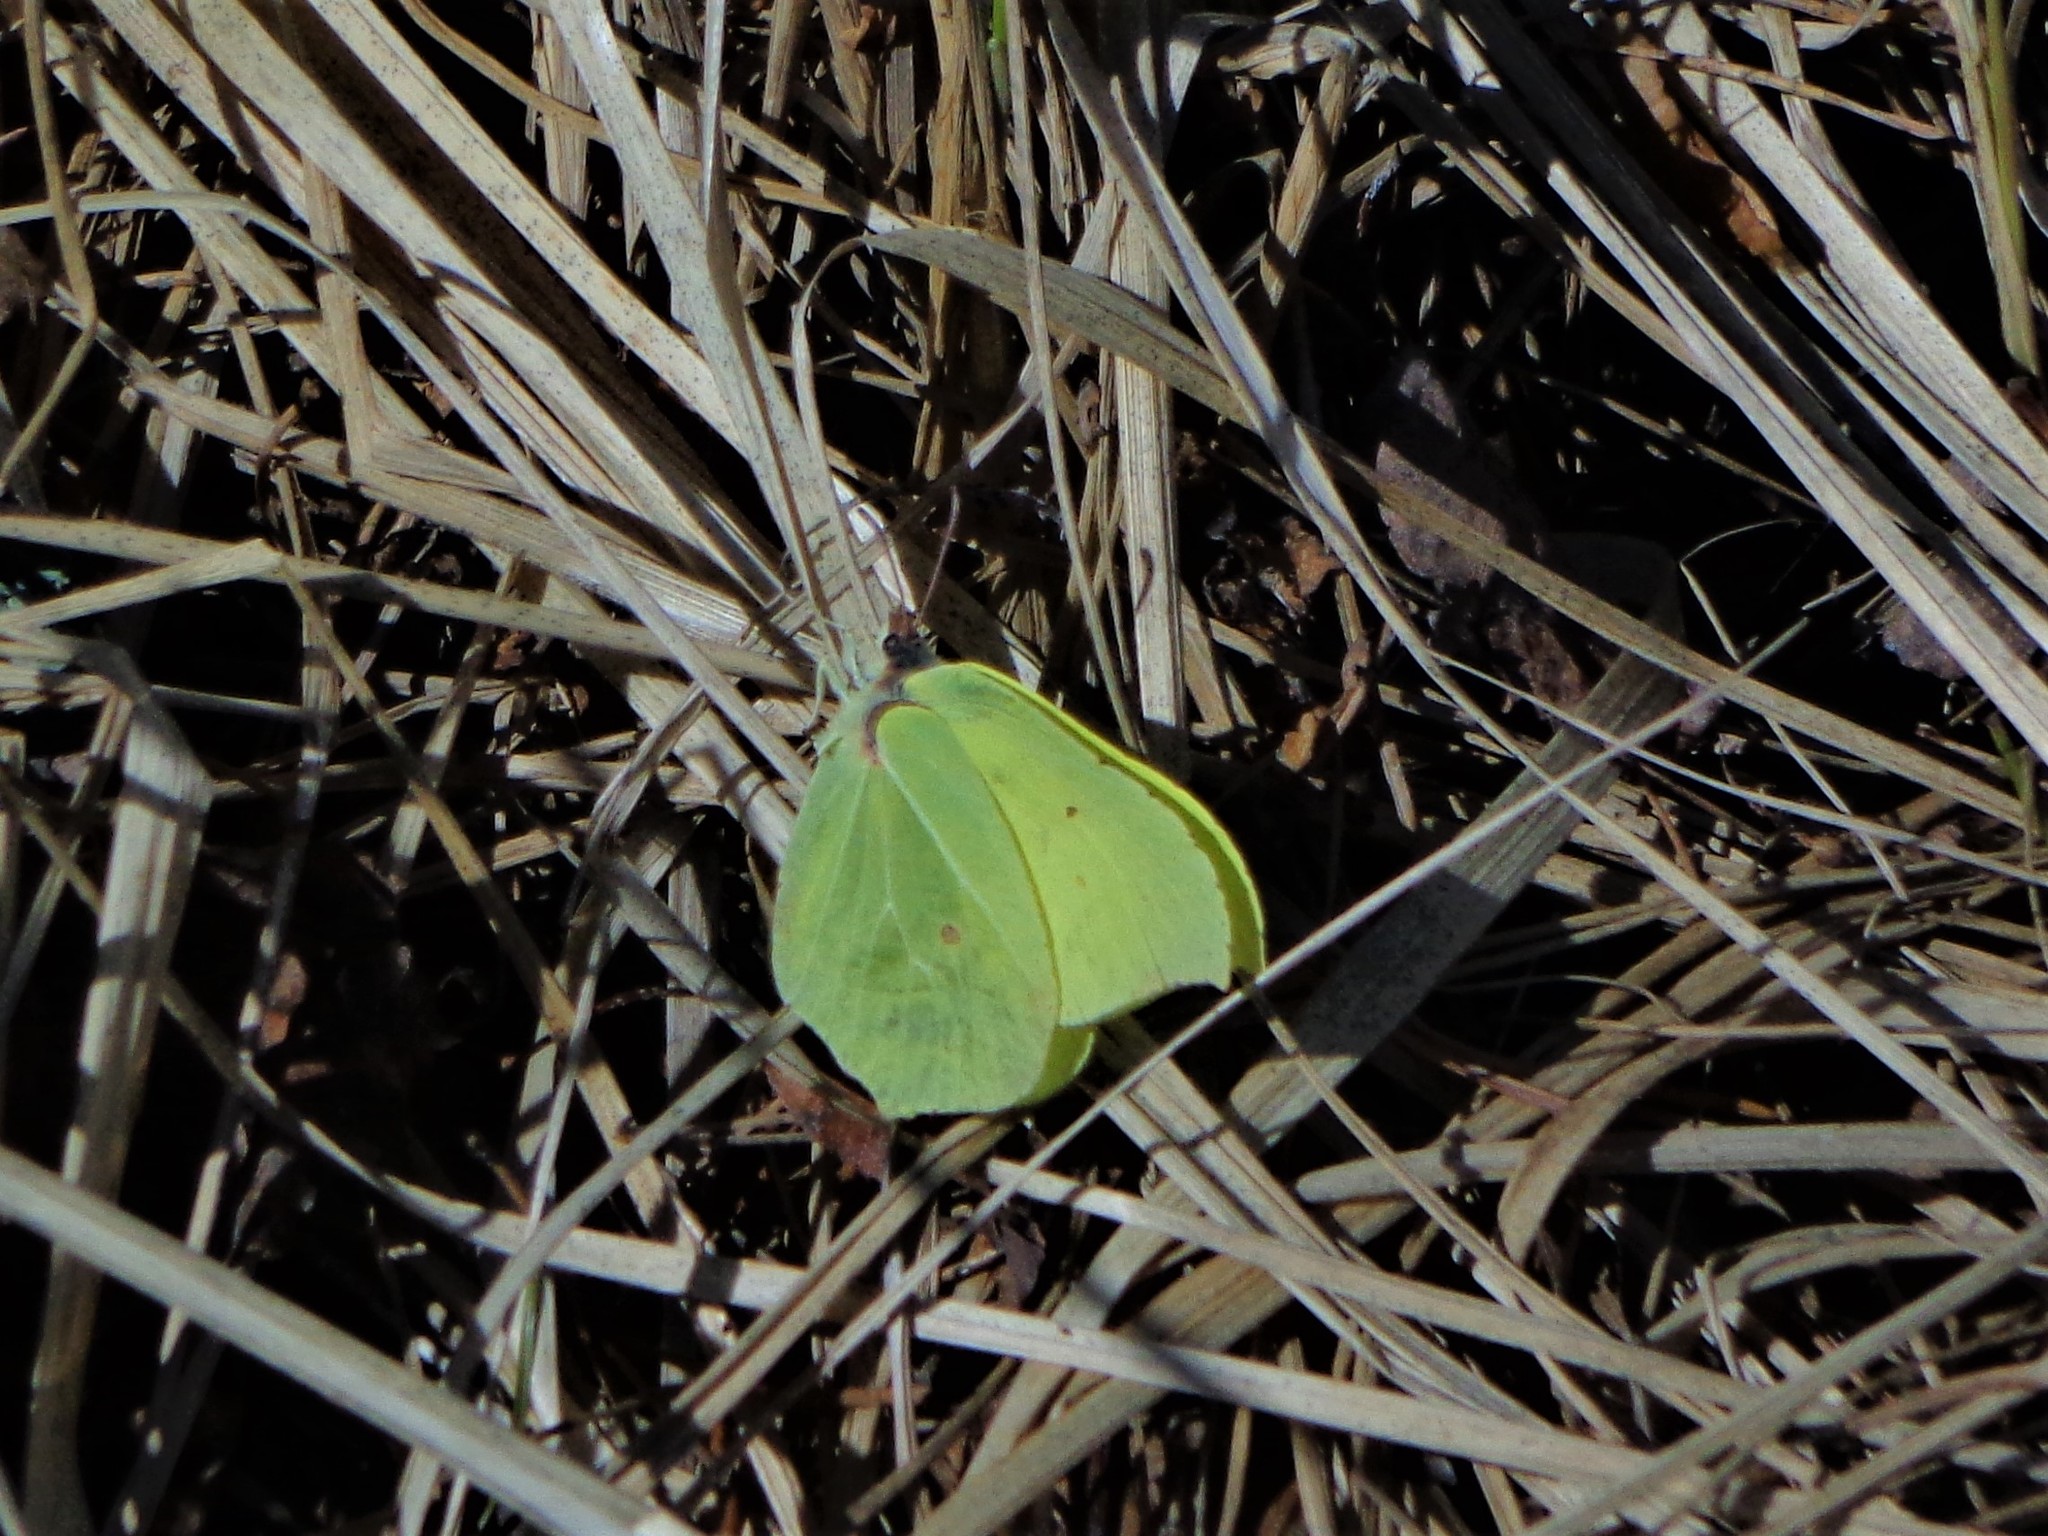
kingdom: Animalia
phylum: Arthropoda
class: Insecta
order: Lepidoptera
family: Pieridae
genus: Gonepteryx
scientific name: Gonepteryx rhamni
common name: Brimstone
